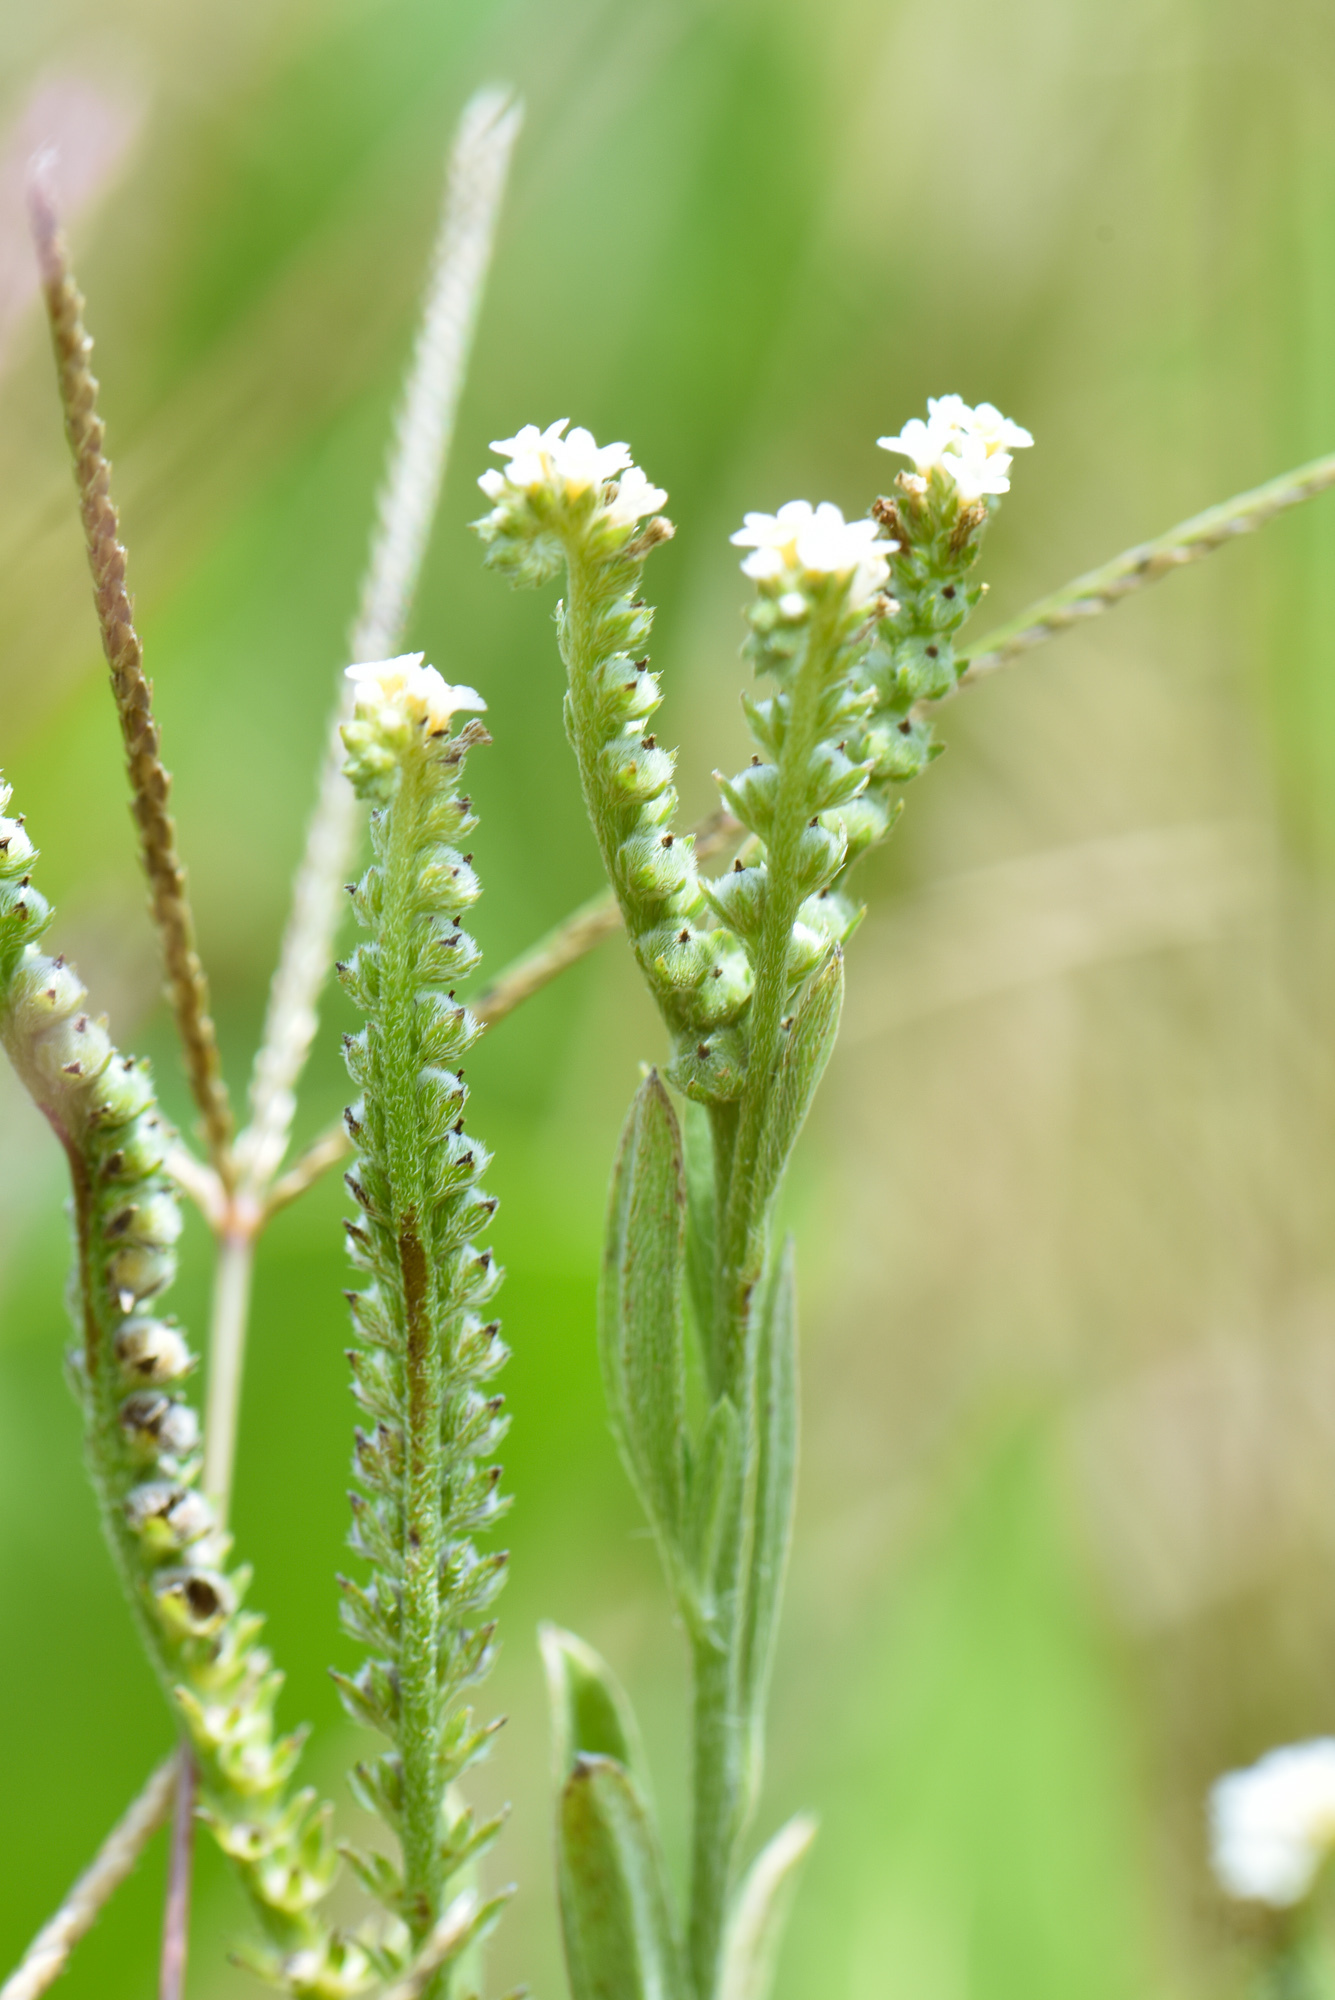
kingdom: Plantae
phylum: Tracheophyta
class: Magnoliopsida
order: Boraginales
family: Heliotropiaceae
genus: Euploca
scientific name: Euploca procumbens
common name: Fourspike heliotrope
